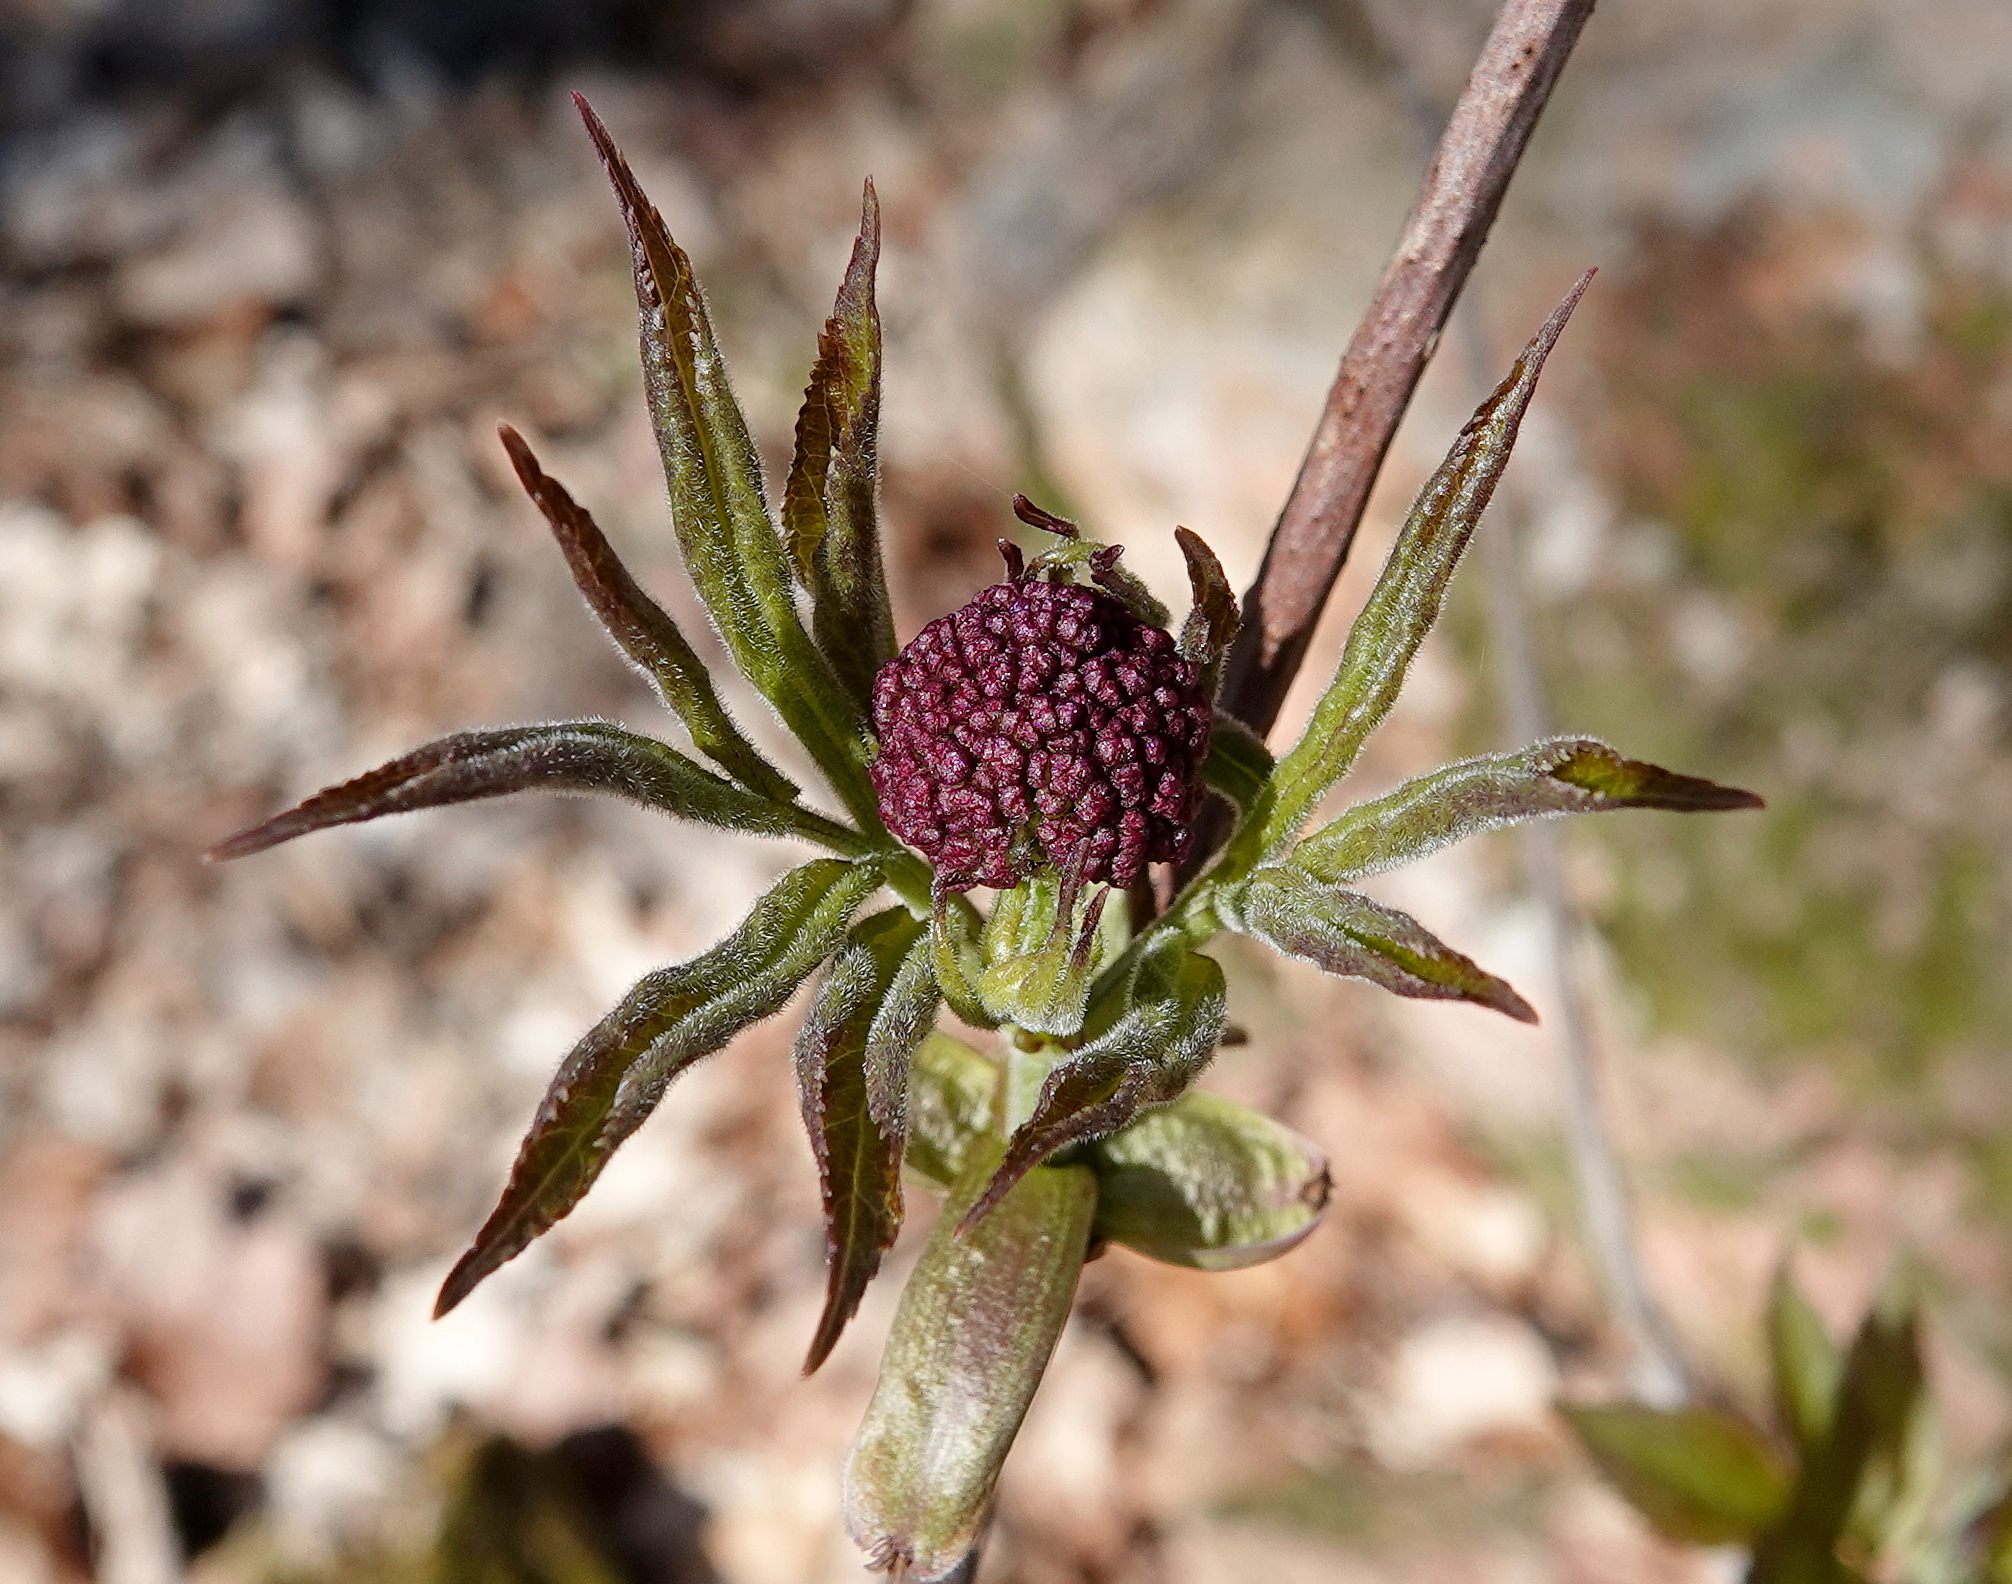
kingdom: Plantae
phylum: Tracheophyta
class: Magnoliopsida
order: Dipsacales
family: Viburnaceae
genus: Sambucus
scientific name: Sambucus racemosa
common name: Red-berried elder
